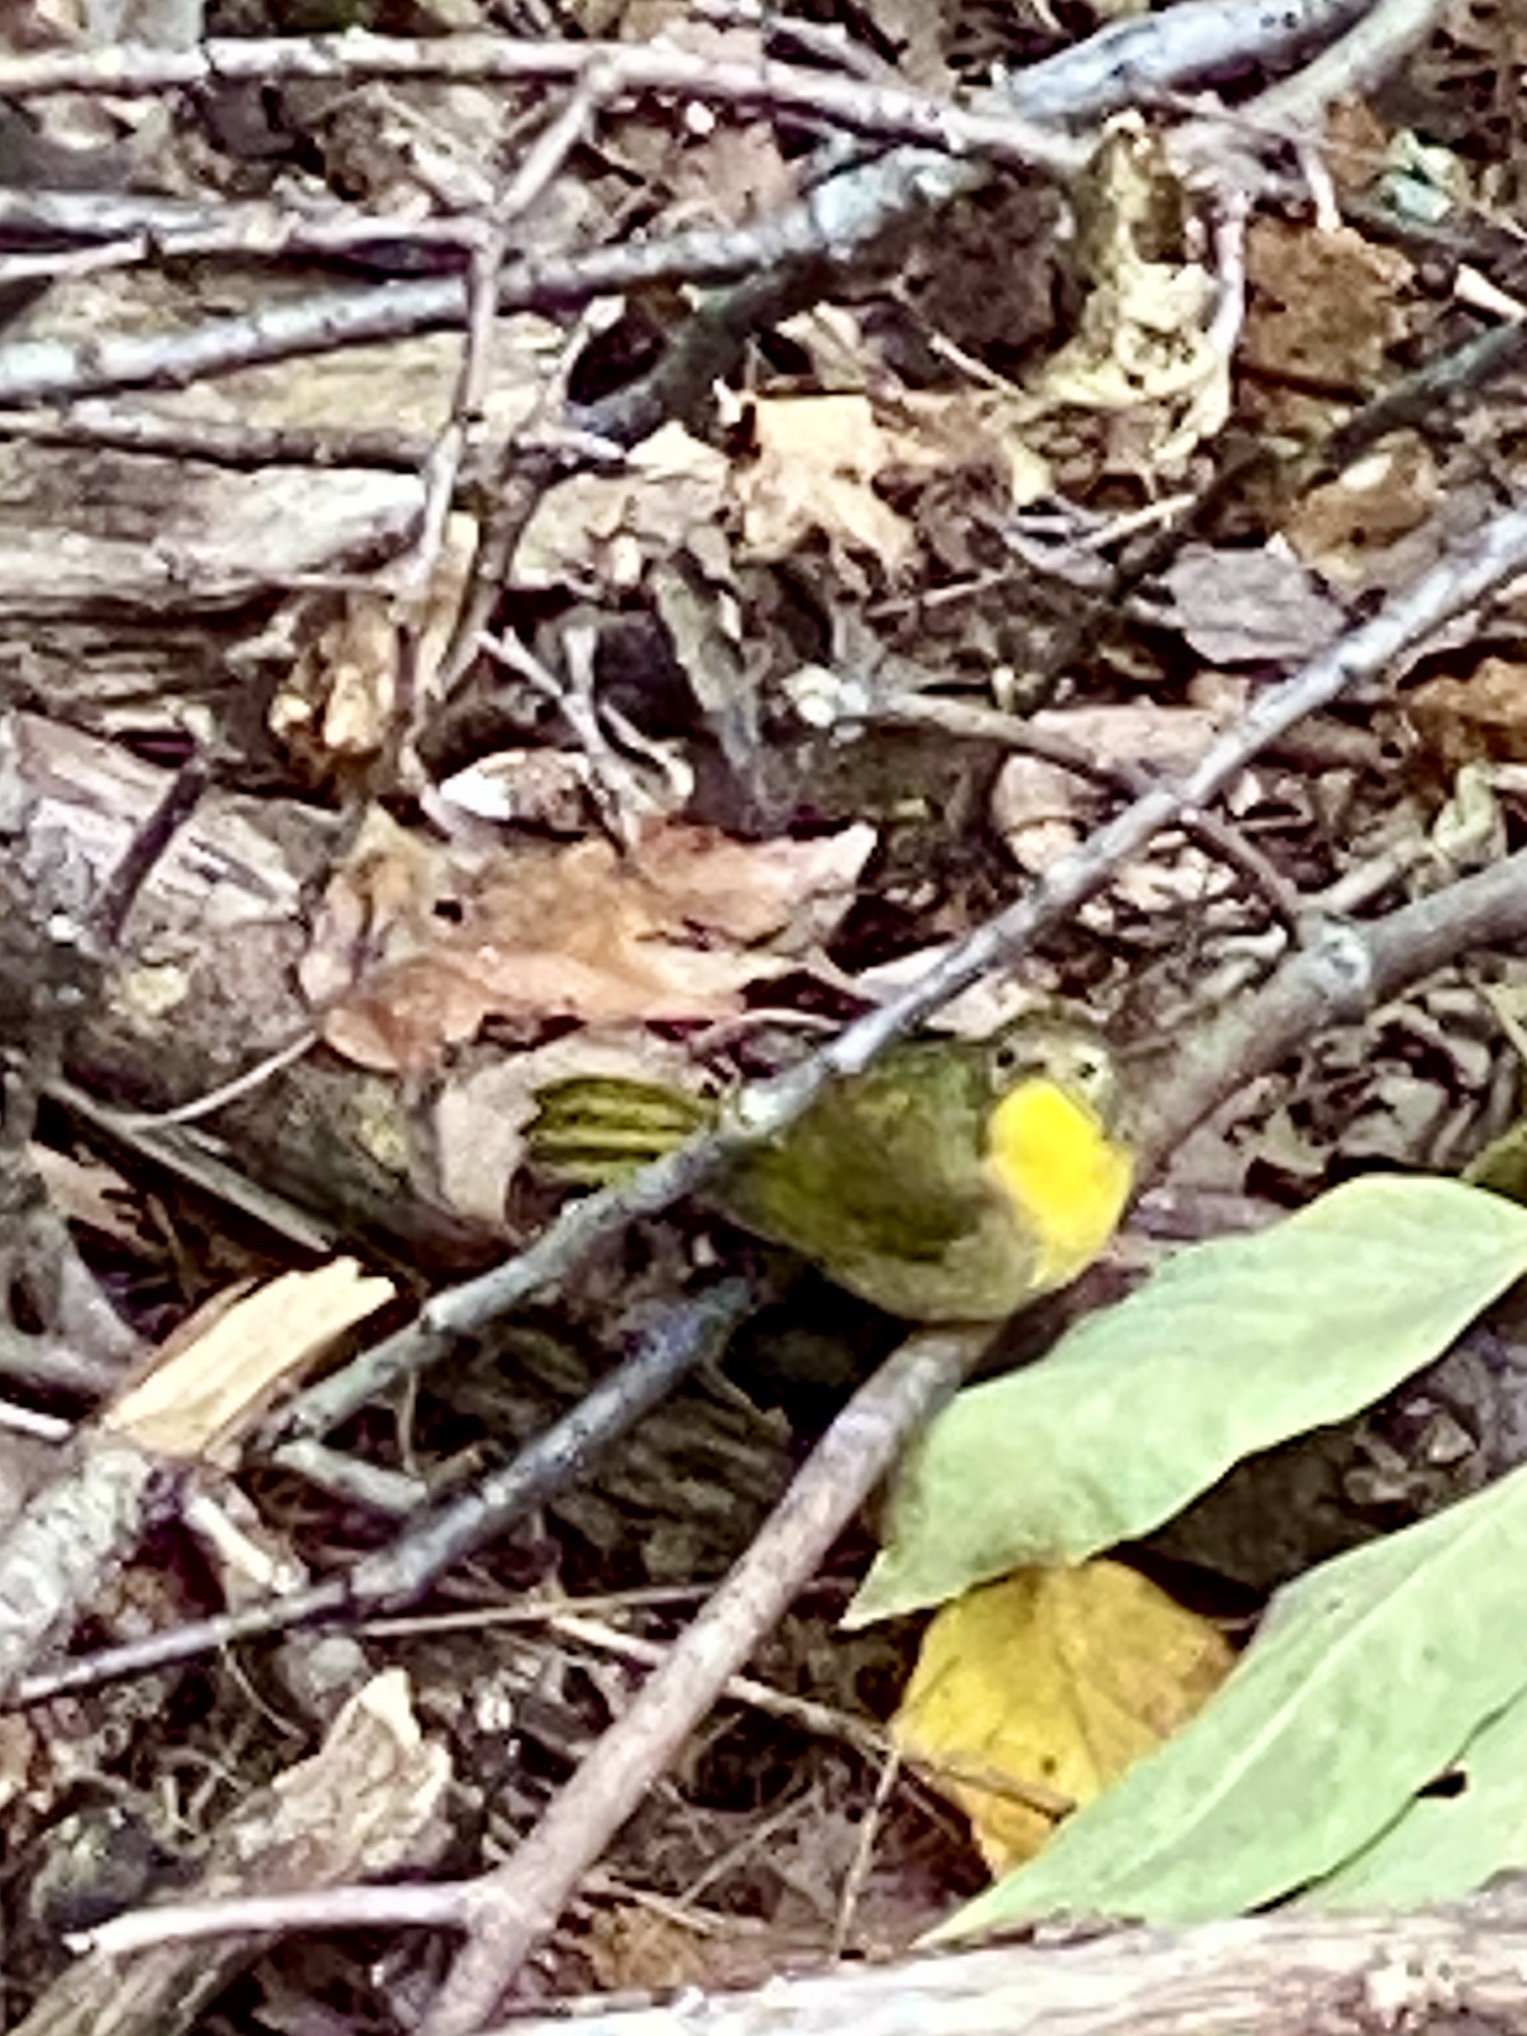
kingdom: Animalia
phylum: Chordata
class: Aves
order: Passeriformes
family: Parulidae
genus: Geothlypis
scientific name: Geothlypis trichas
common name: Common yellowthroat
